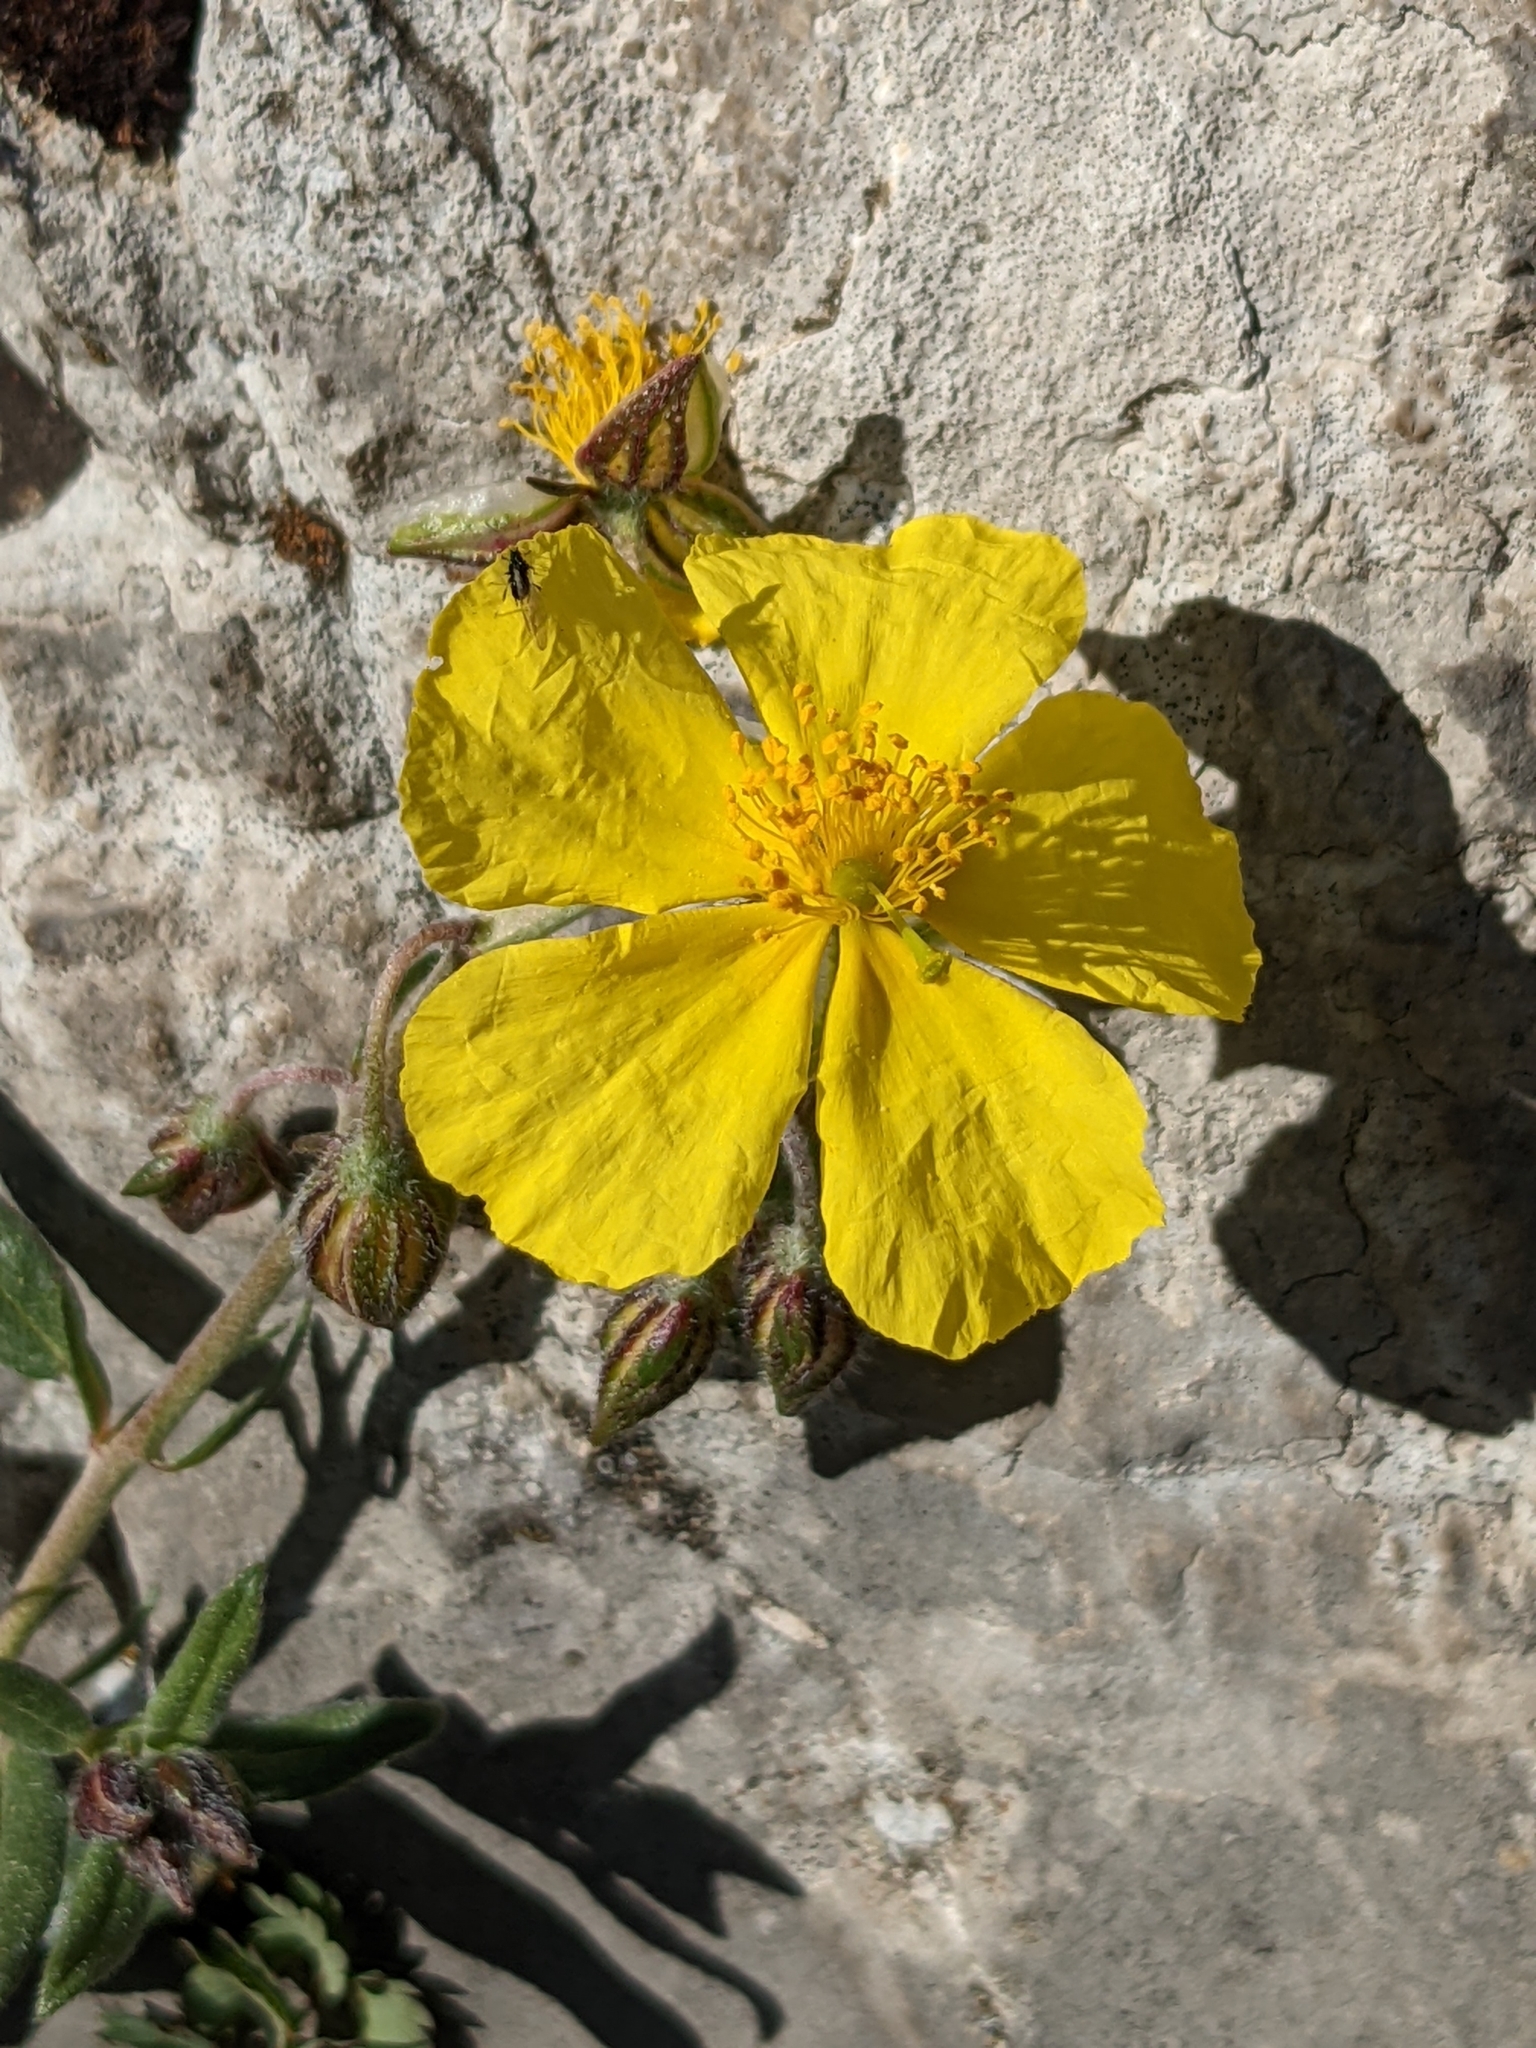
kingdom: Plantae
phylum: Tracheophyta
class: Magnoliopsida
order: Malvales
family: Cistaceae
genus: Helianthemum
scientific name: Helianthemum nummularium
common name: Common rock-rose
